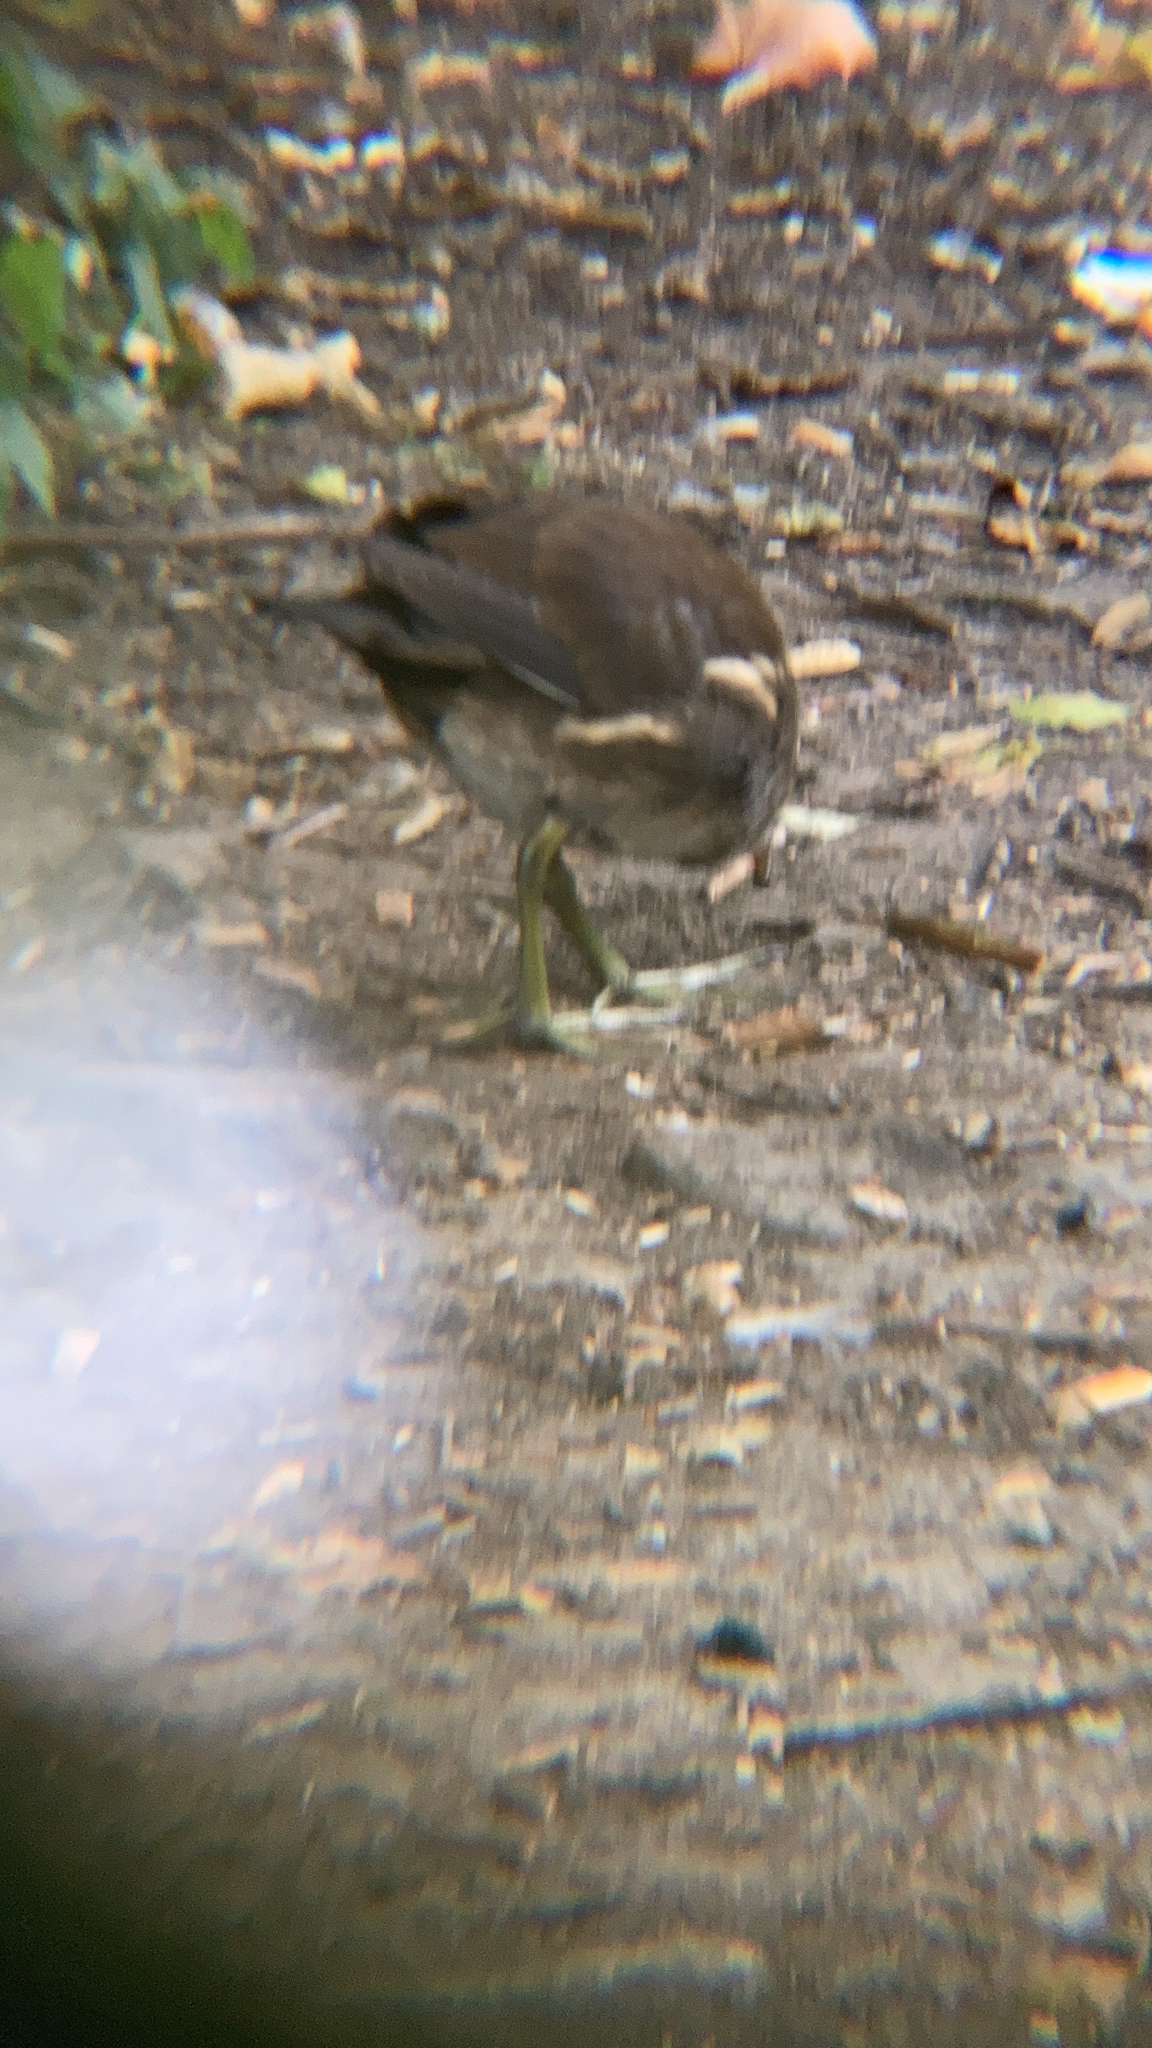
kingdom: Animalia
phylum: Chordata
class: Aves
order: Gruiformes
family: Rallidae
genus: Gallinula
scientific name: Gallinula chloropus
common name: Common moorhen
